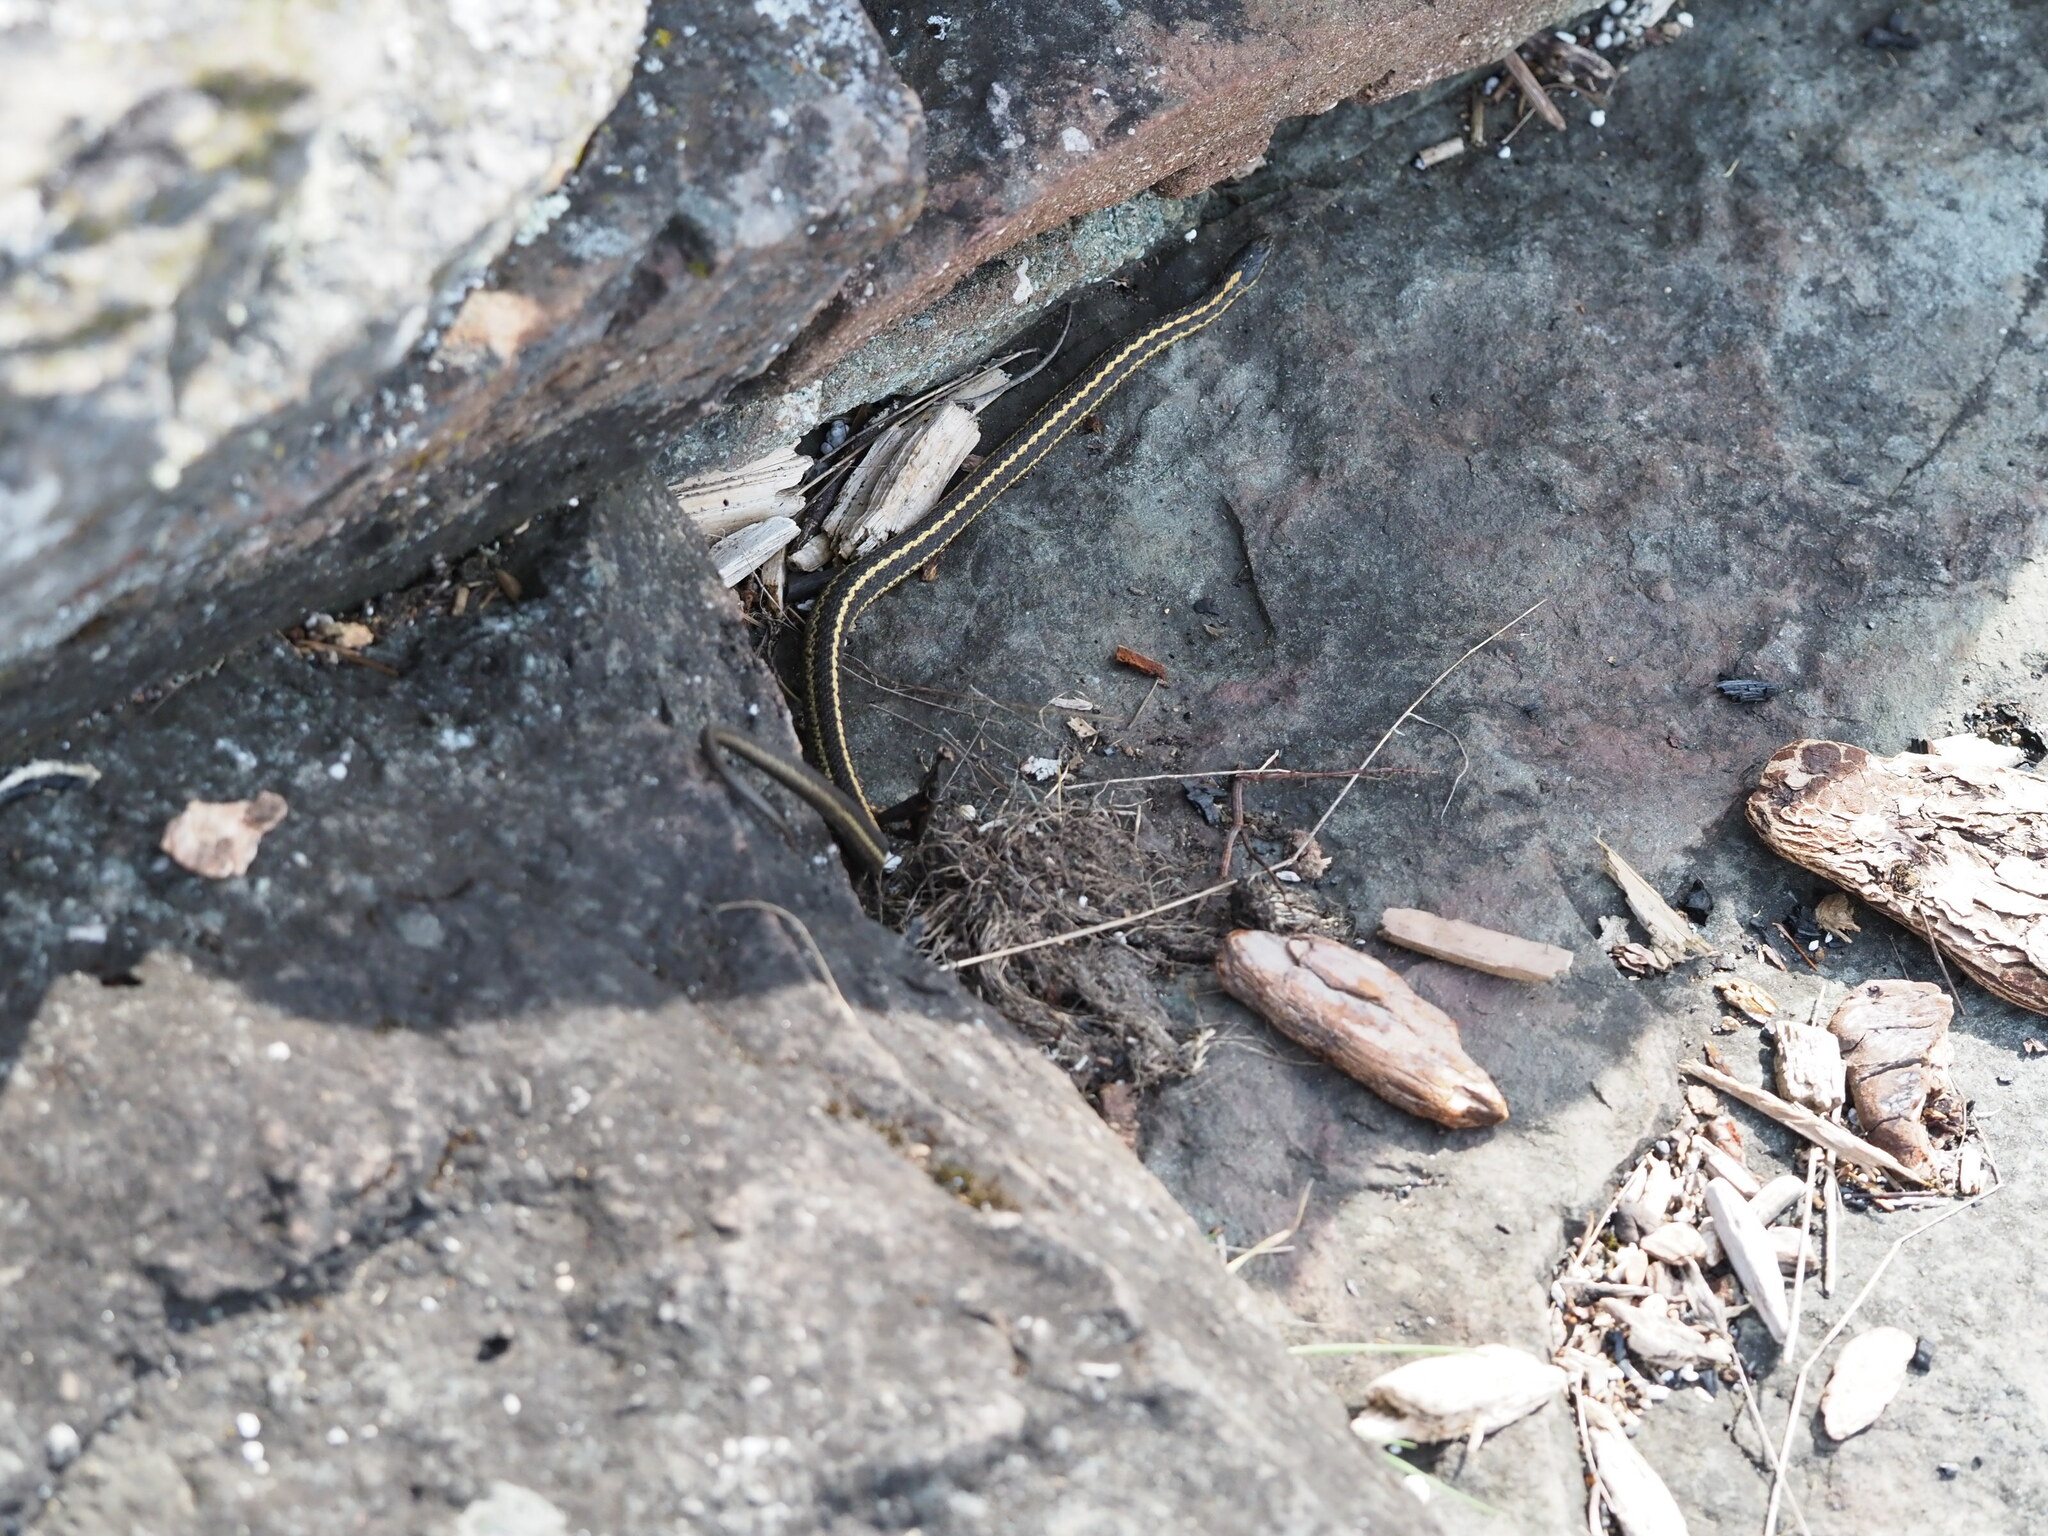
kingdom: Animalia
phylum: Chordata
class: Squamata
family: Colubridae
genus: Thamnophis
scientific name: Thamnophis elegans
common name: Western terrestrial garter snake
